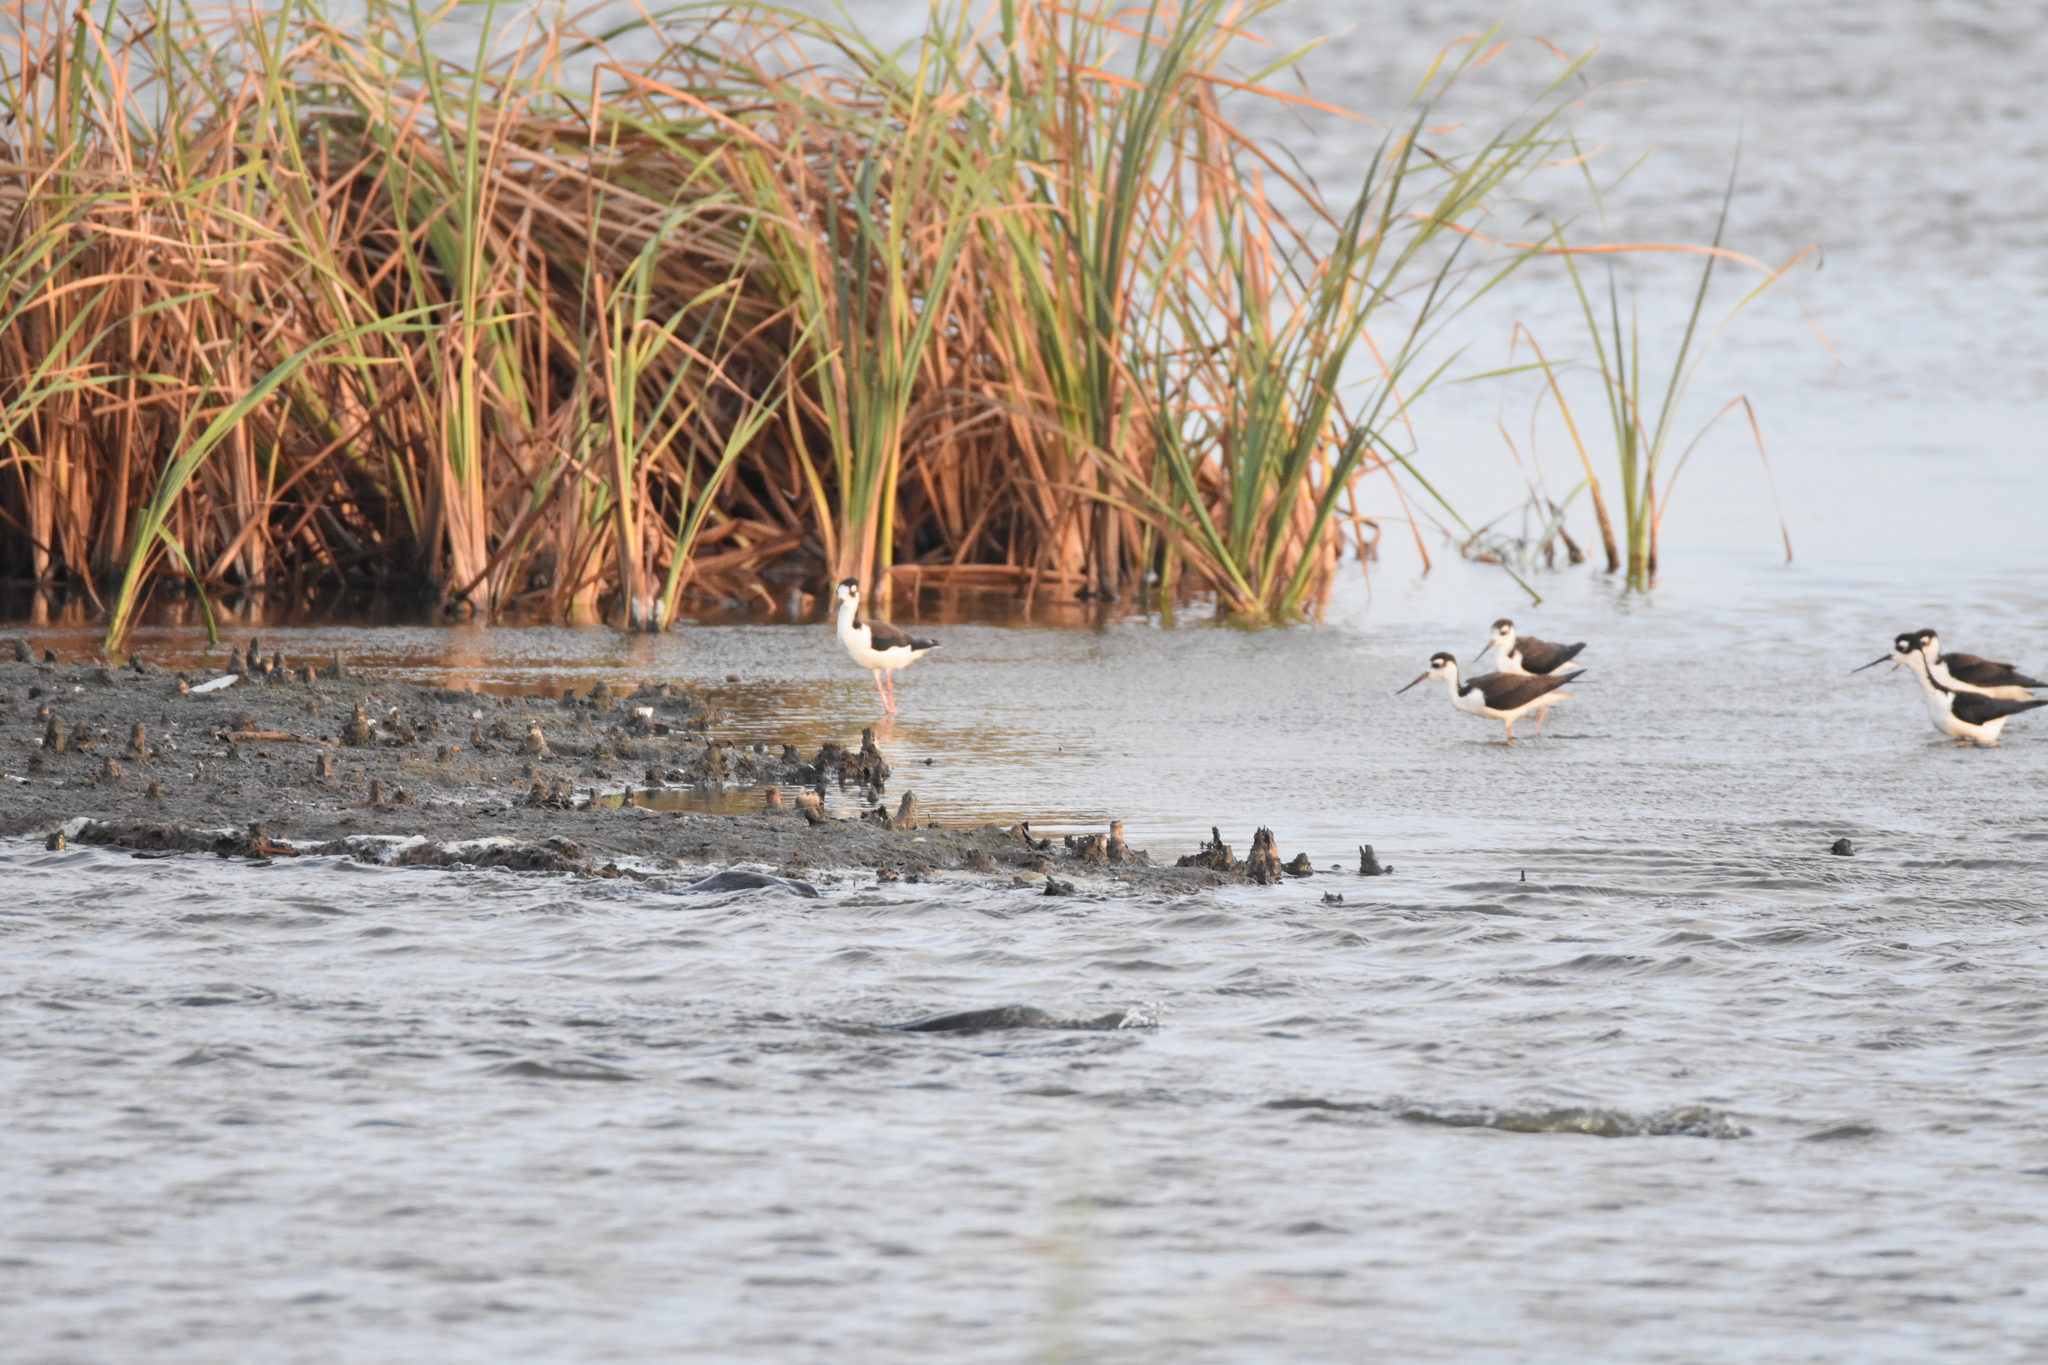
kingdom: Animalia
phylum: Chordata
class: Aves
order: Charadriiformes
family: Recurvirostridae
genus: Himantopus
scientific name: Himantopus mexicanus
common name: Black-necked stilt
